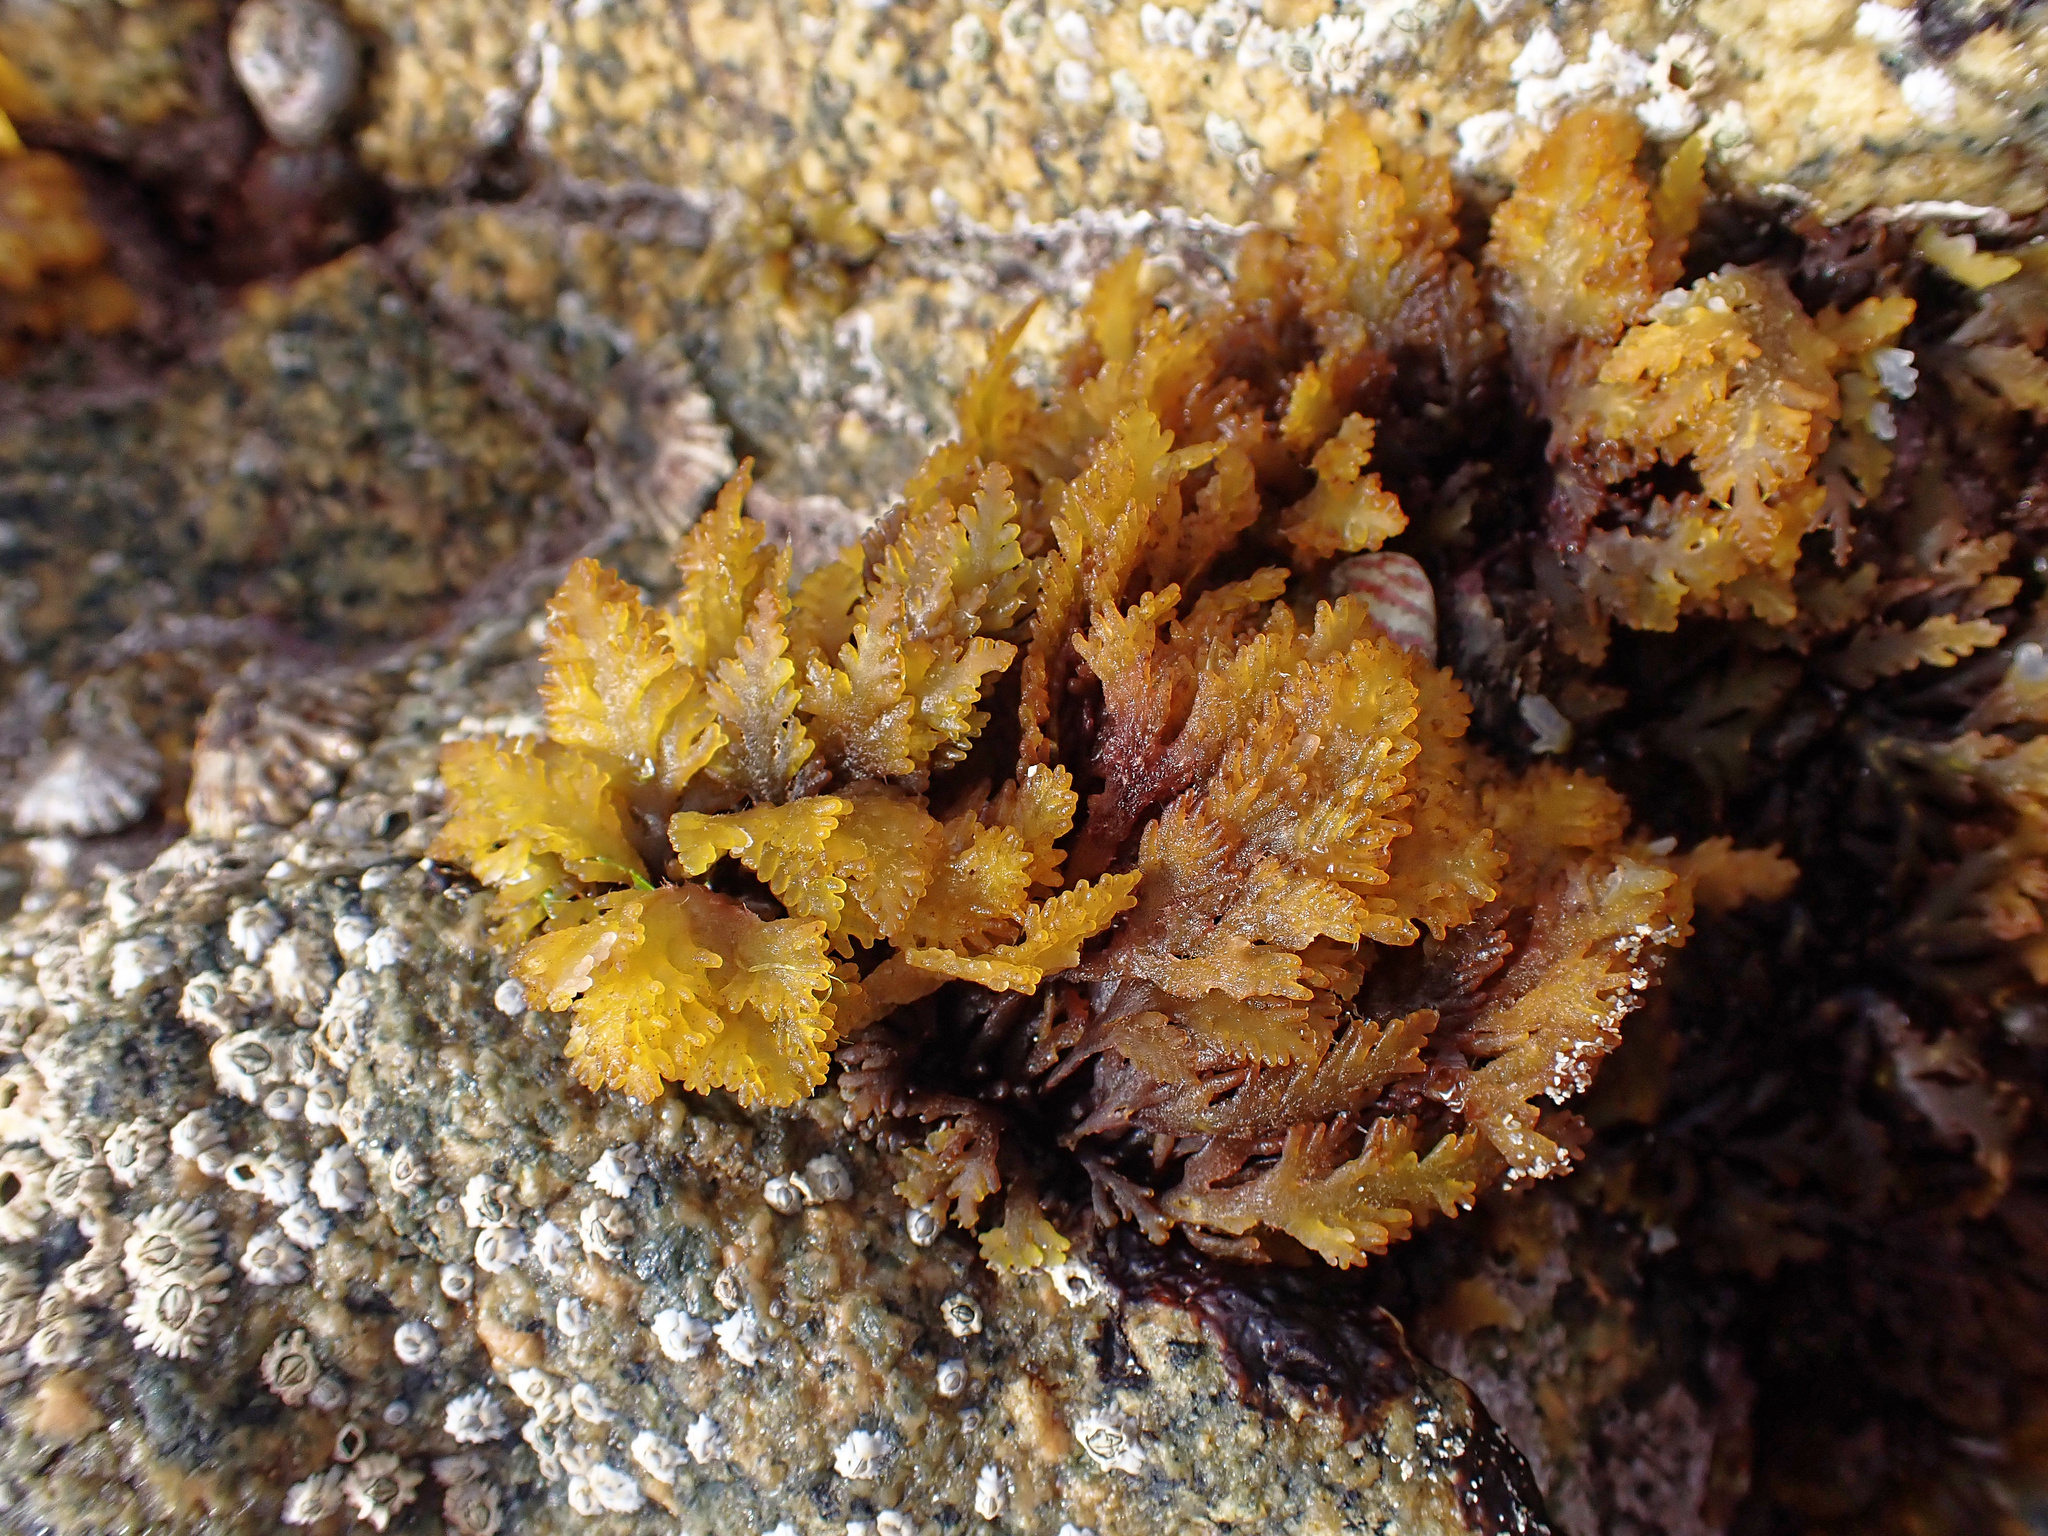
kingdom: Plantae
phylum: Rhodophyta
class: Florideophyceae
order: Ceramiales
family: Rhodomelaceae
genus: Laurencia
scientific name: Laurencia Osmundea pinnatifida
